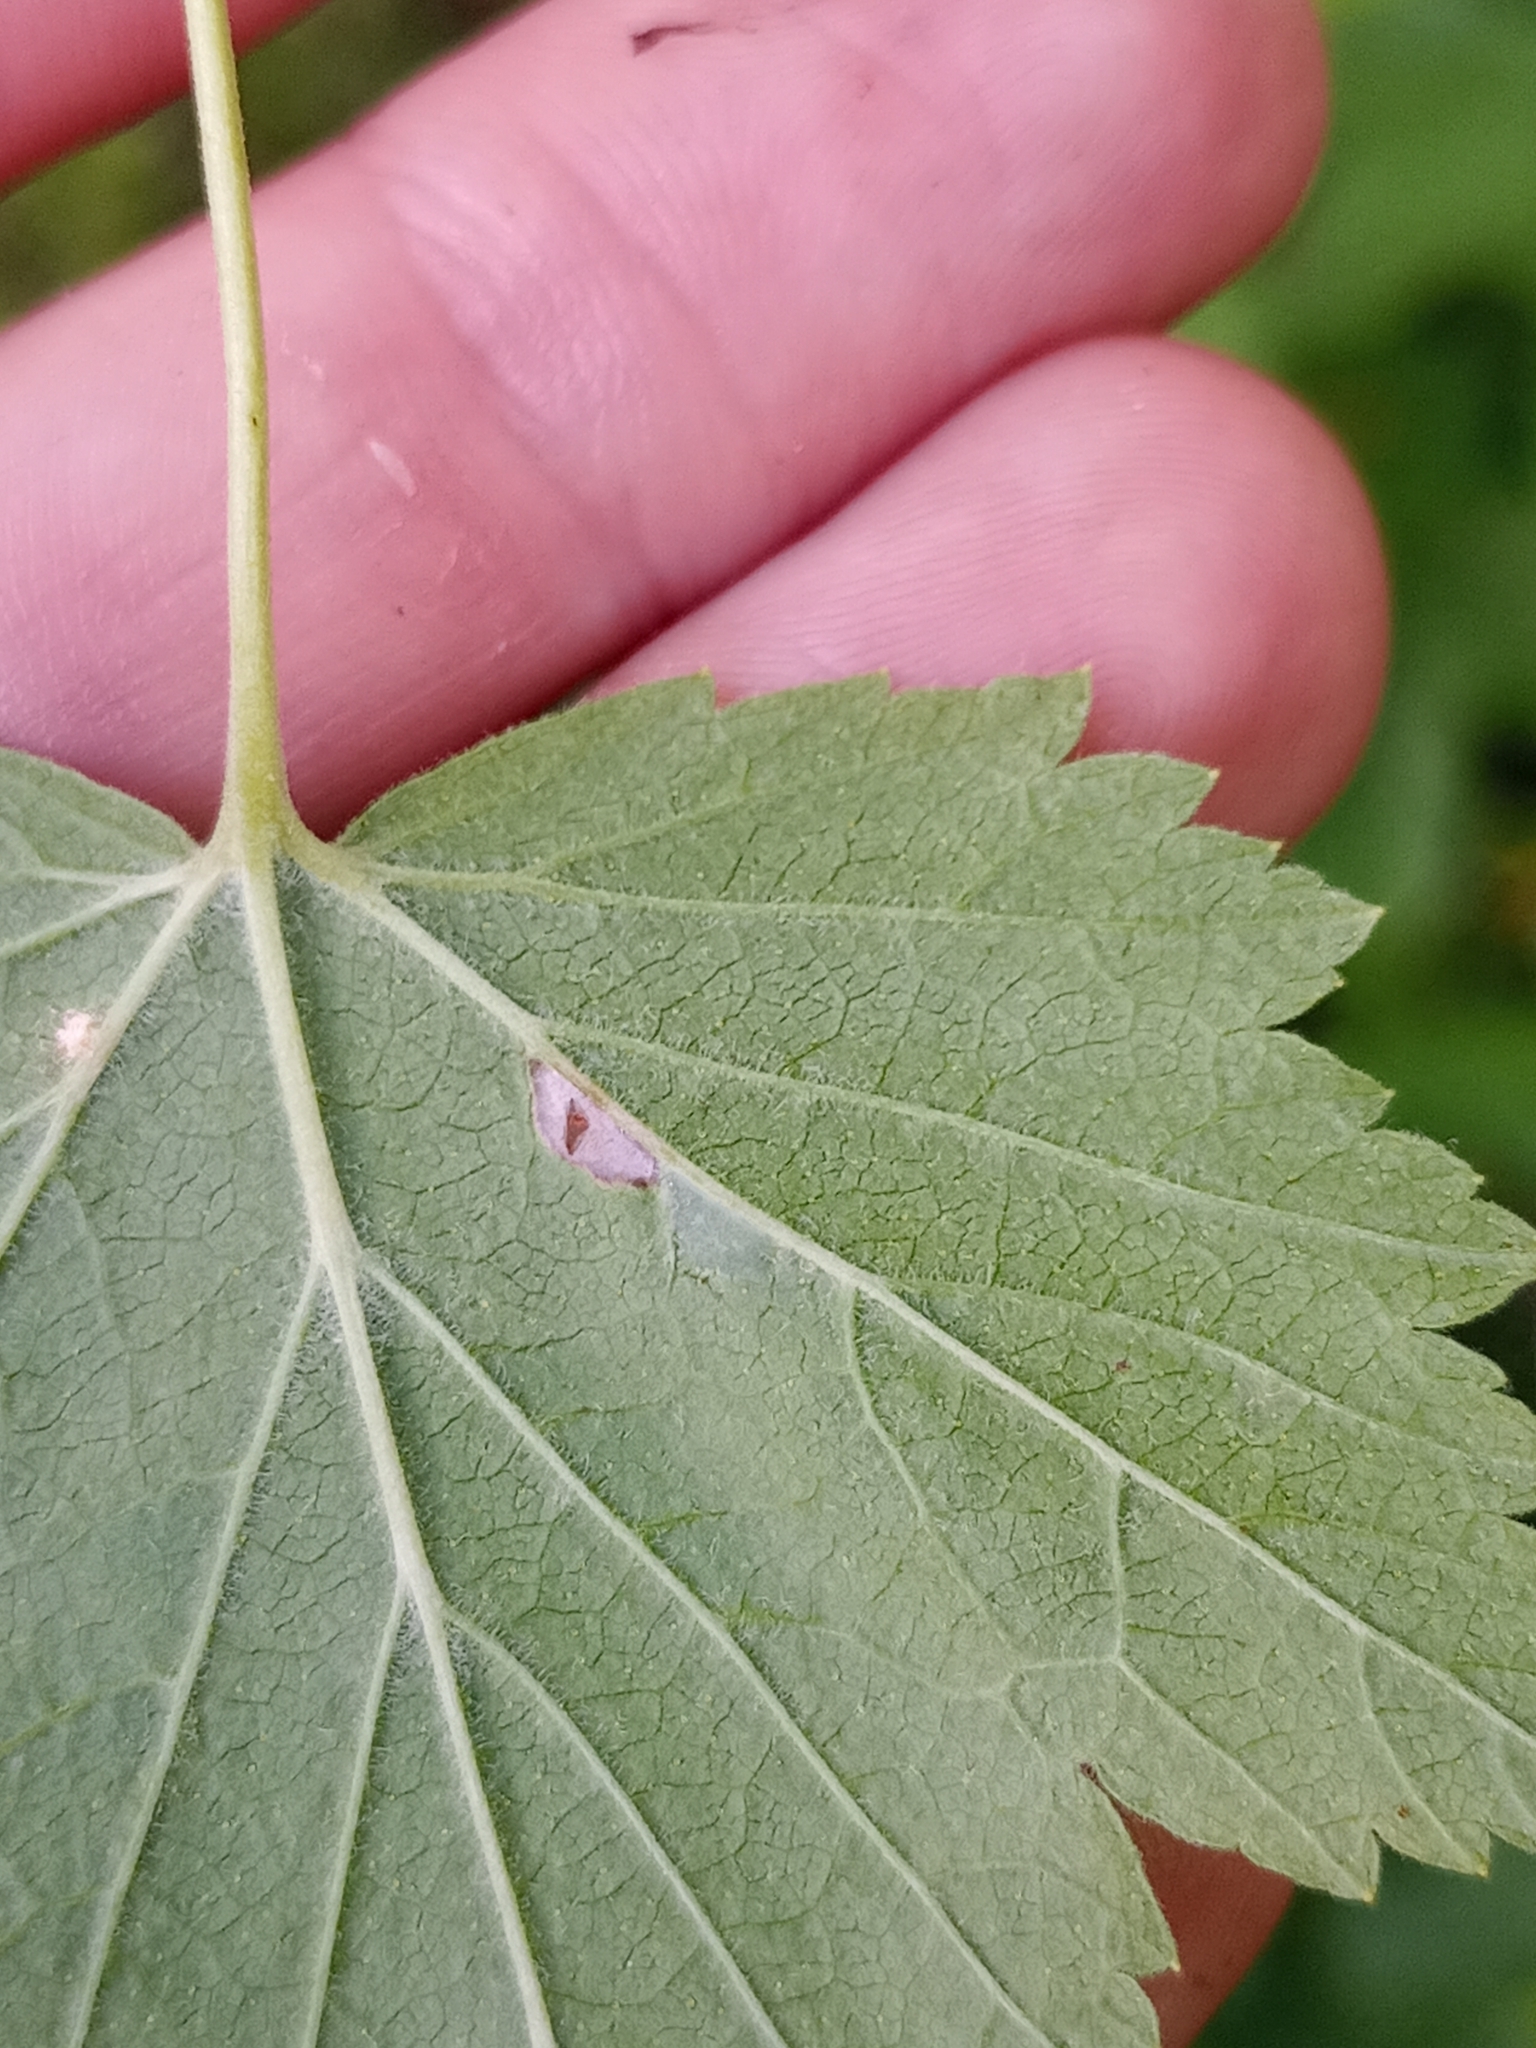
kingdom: Plantae
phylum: Tracheophyta
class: Magnoliopsida
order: Saxifragales
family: Grossulariaceae
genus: Ribes
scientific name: Ribes hudsonianum
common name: Northern black currant
